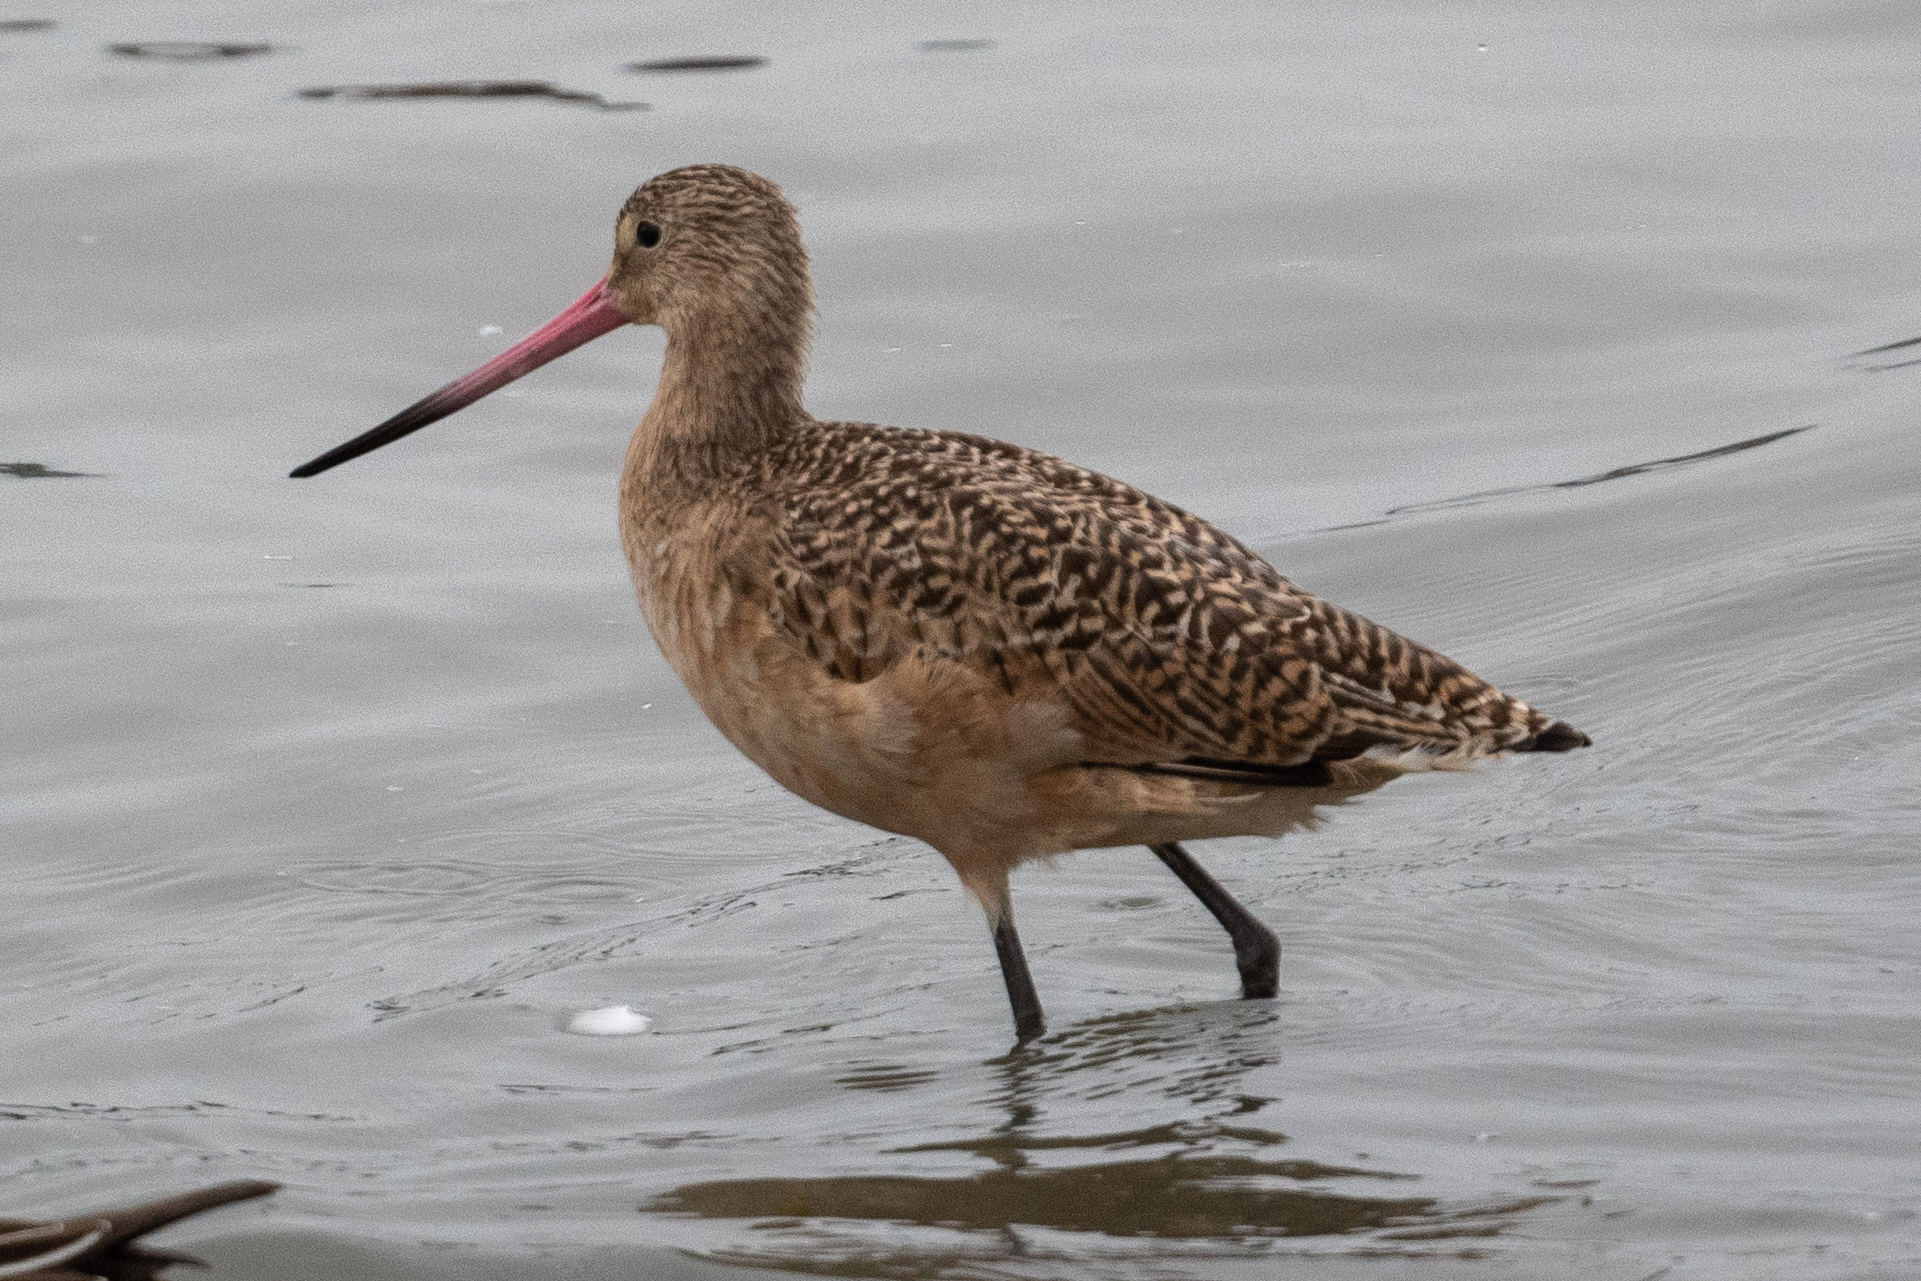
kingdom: Animalia
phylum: Chordata
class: Aves
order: Charadriiformes
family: Scolopacidae
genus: Limosa
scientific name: Limosa fedoa
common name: Marbled godwit
